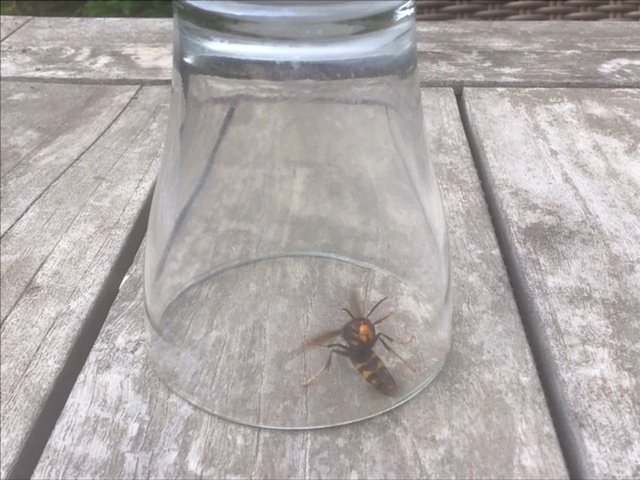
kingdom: Animalia
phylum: Arthropoda
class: Insecta
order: Hymenoptera
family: Vespidae
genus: Vespa
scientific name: Vespa velutina
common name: Asian hornet
